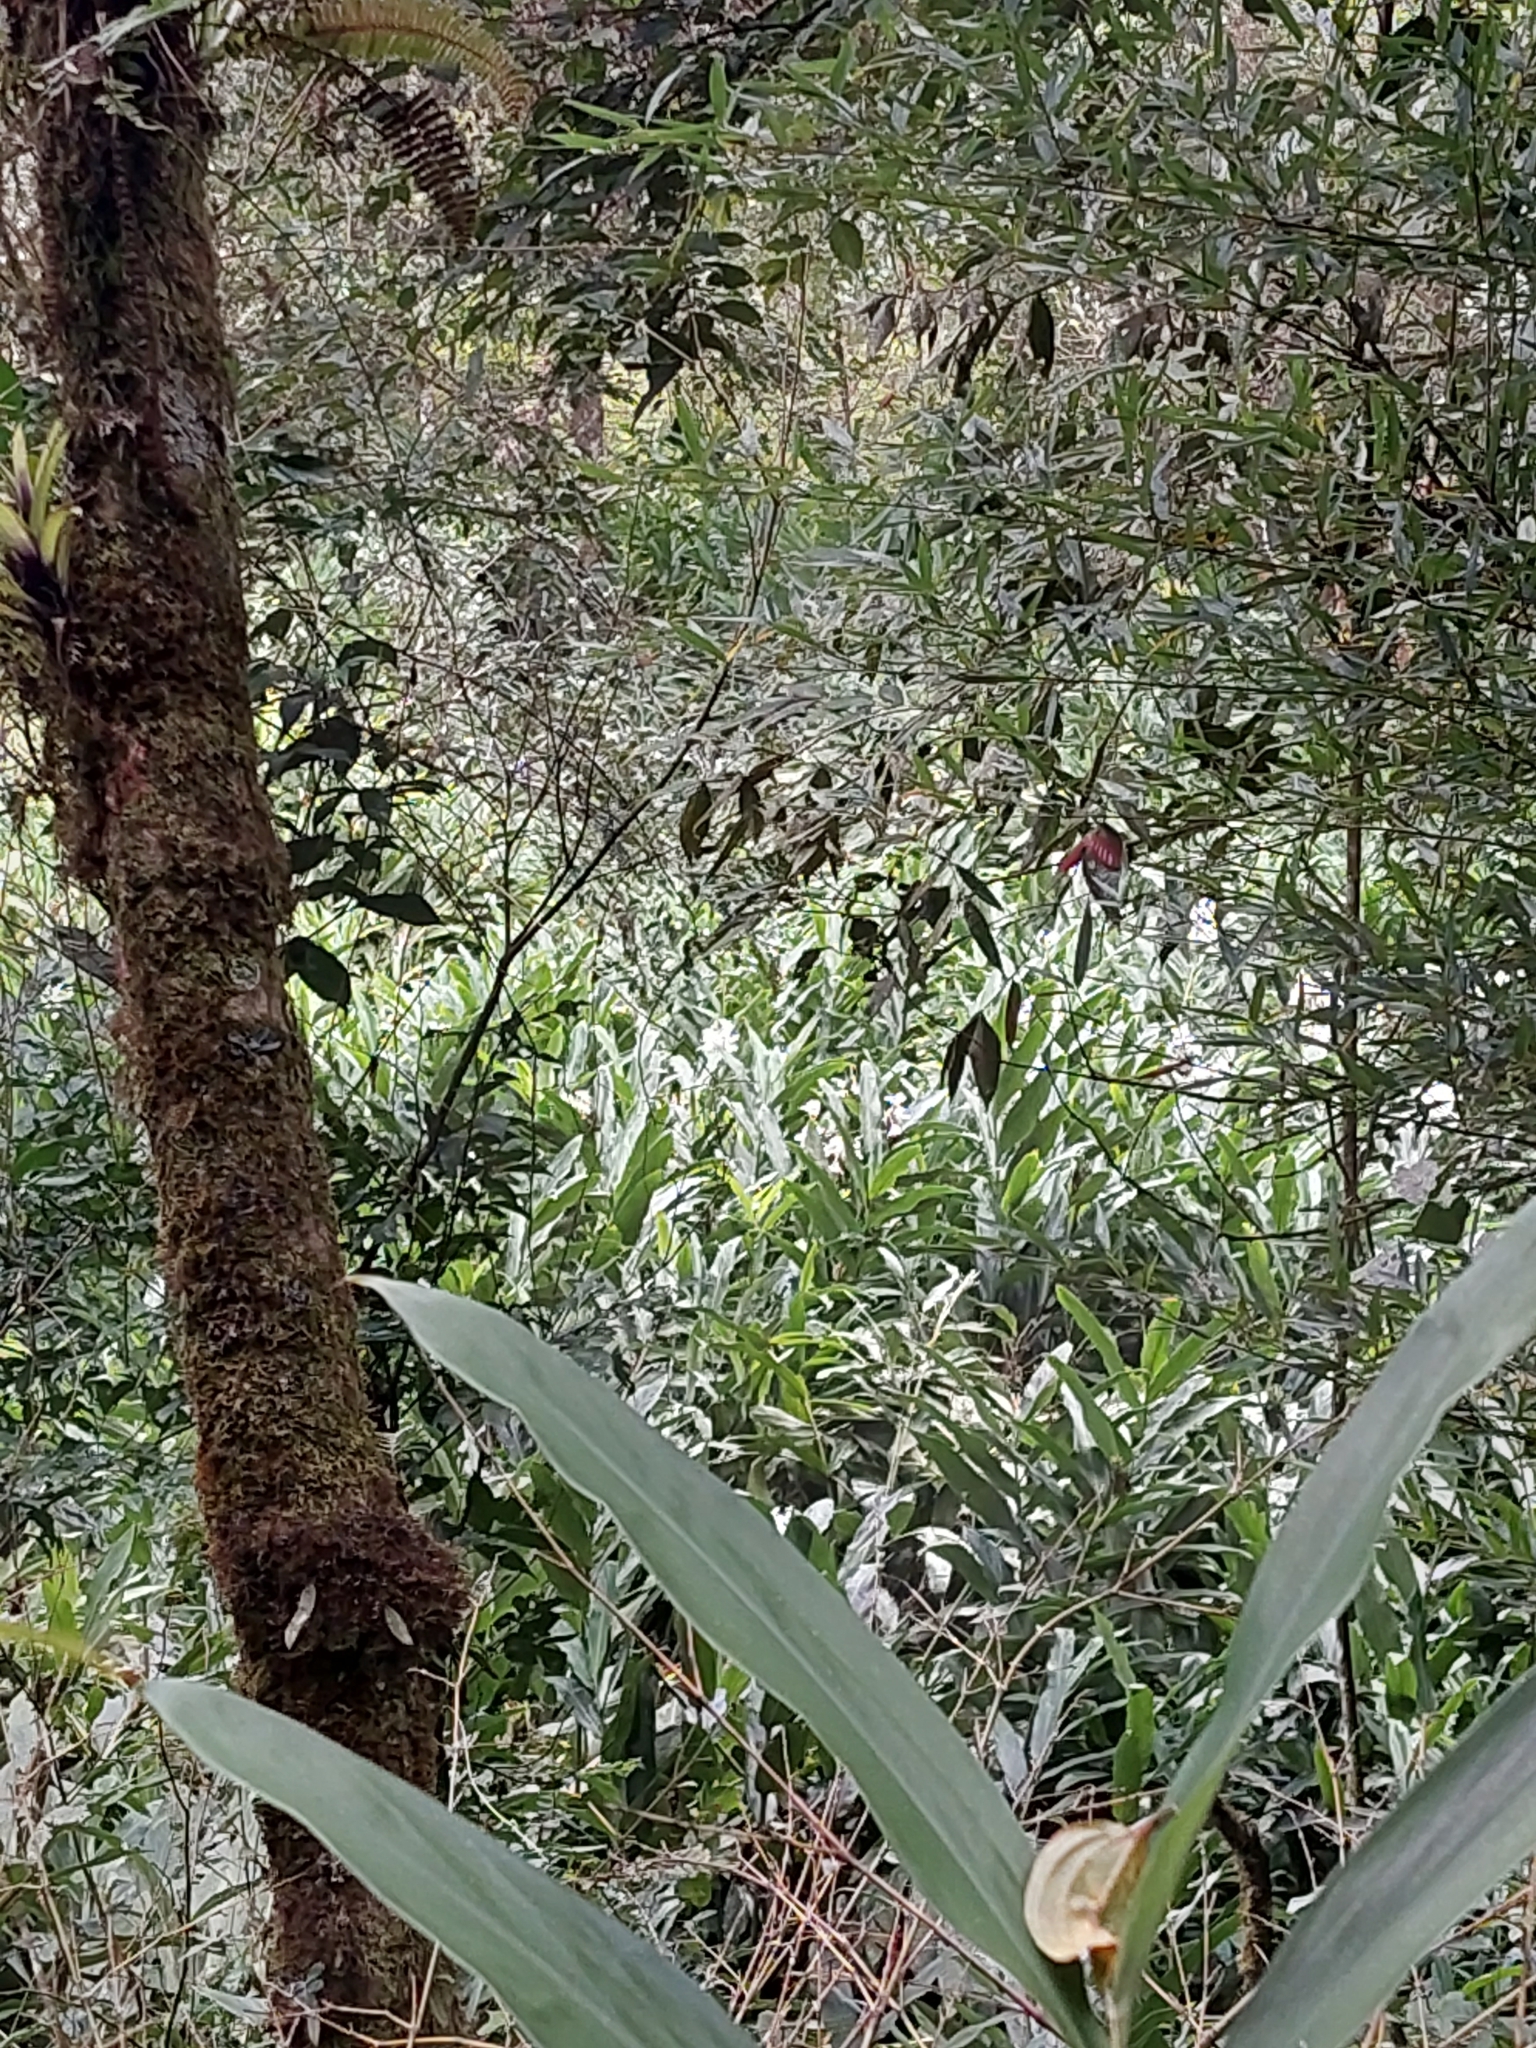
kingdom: Plantae
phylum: Tracheophyta
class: Liliopsida
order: Zingiberales
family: Zingiberaceae
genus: Hedychium
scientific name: Hedychium coronarium
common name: White garland-lily
